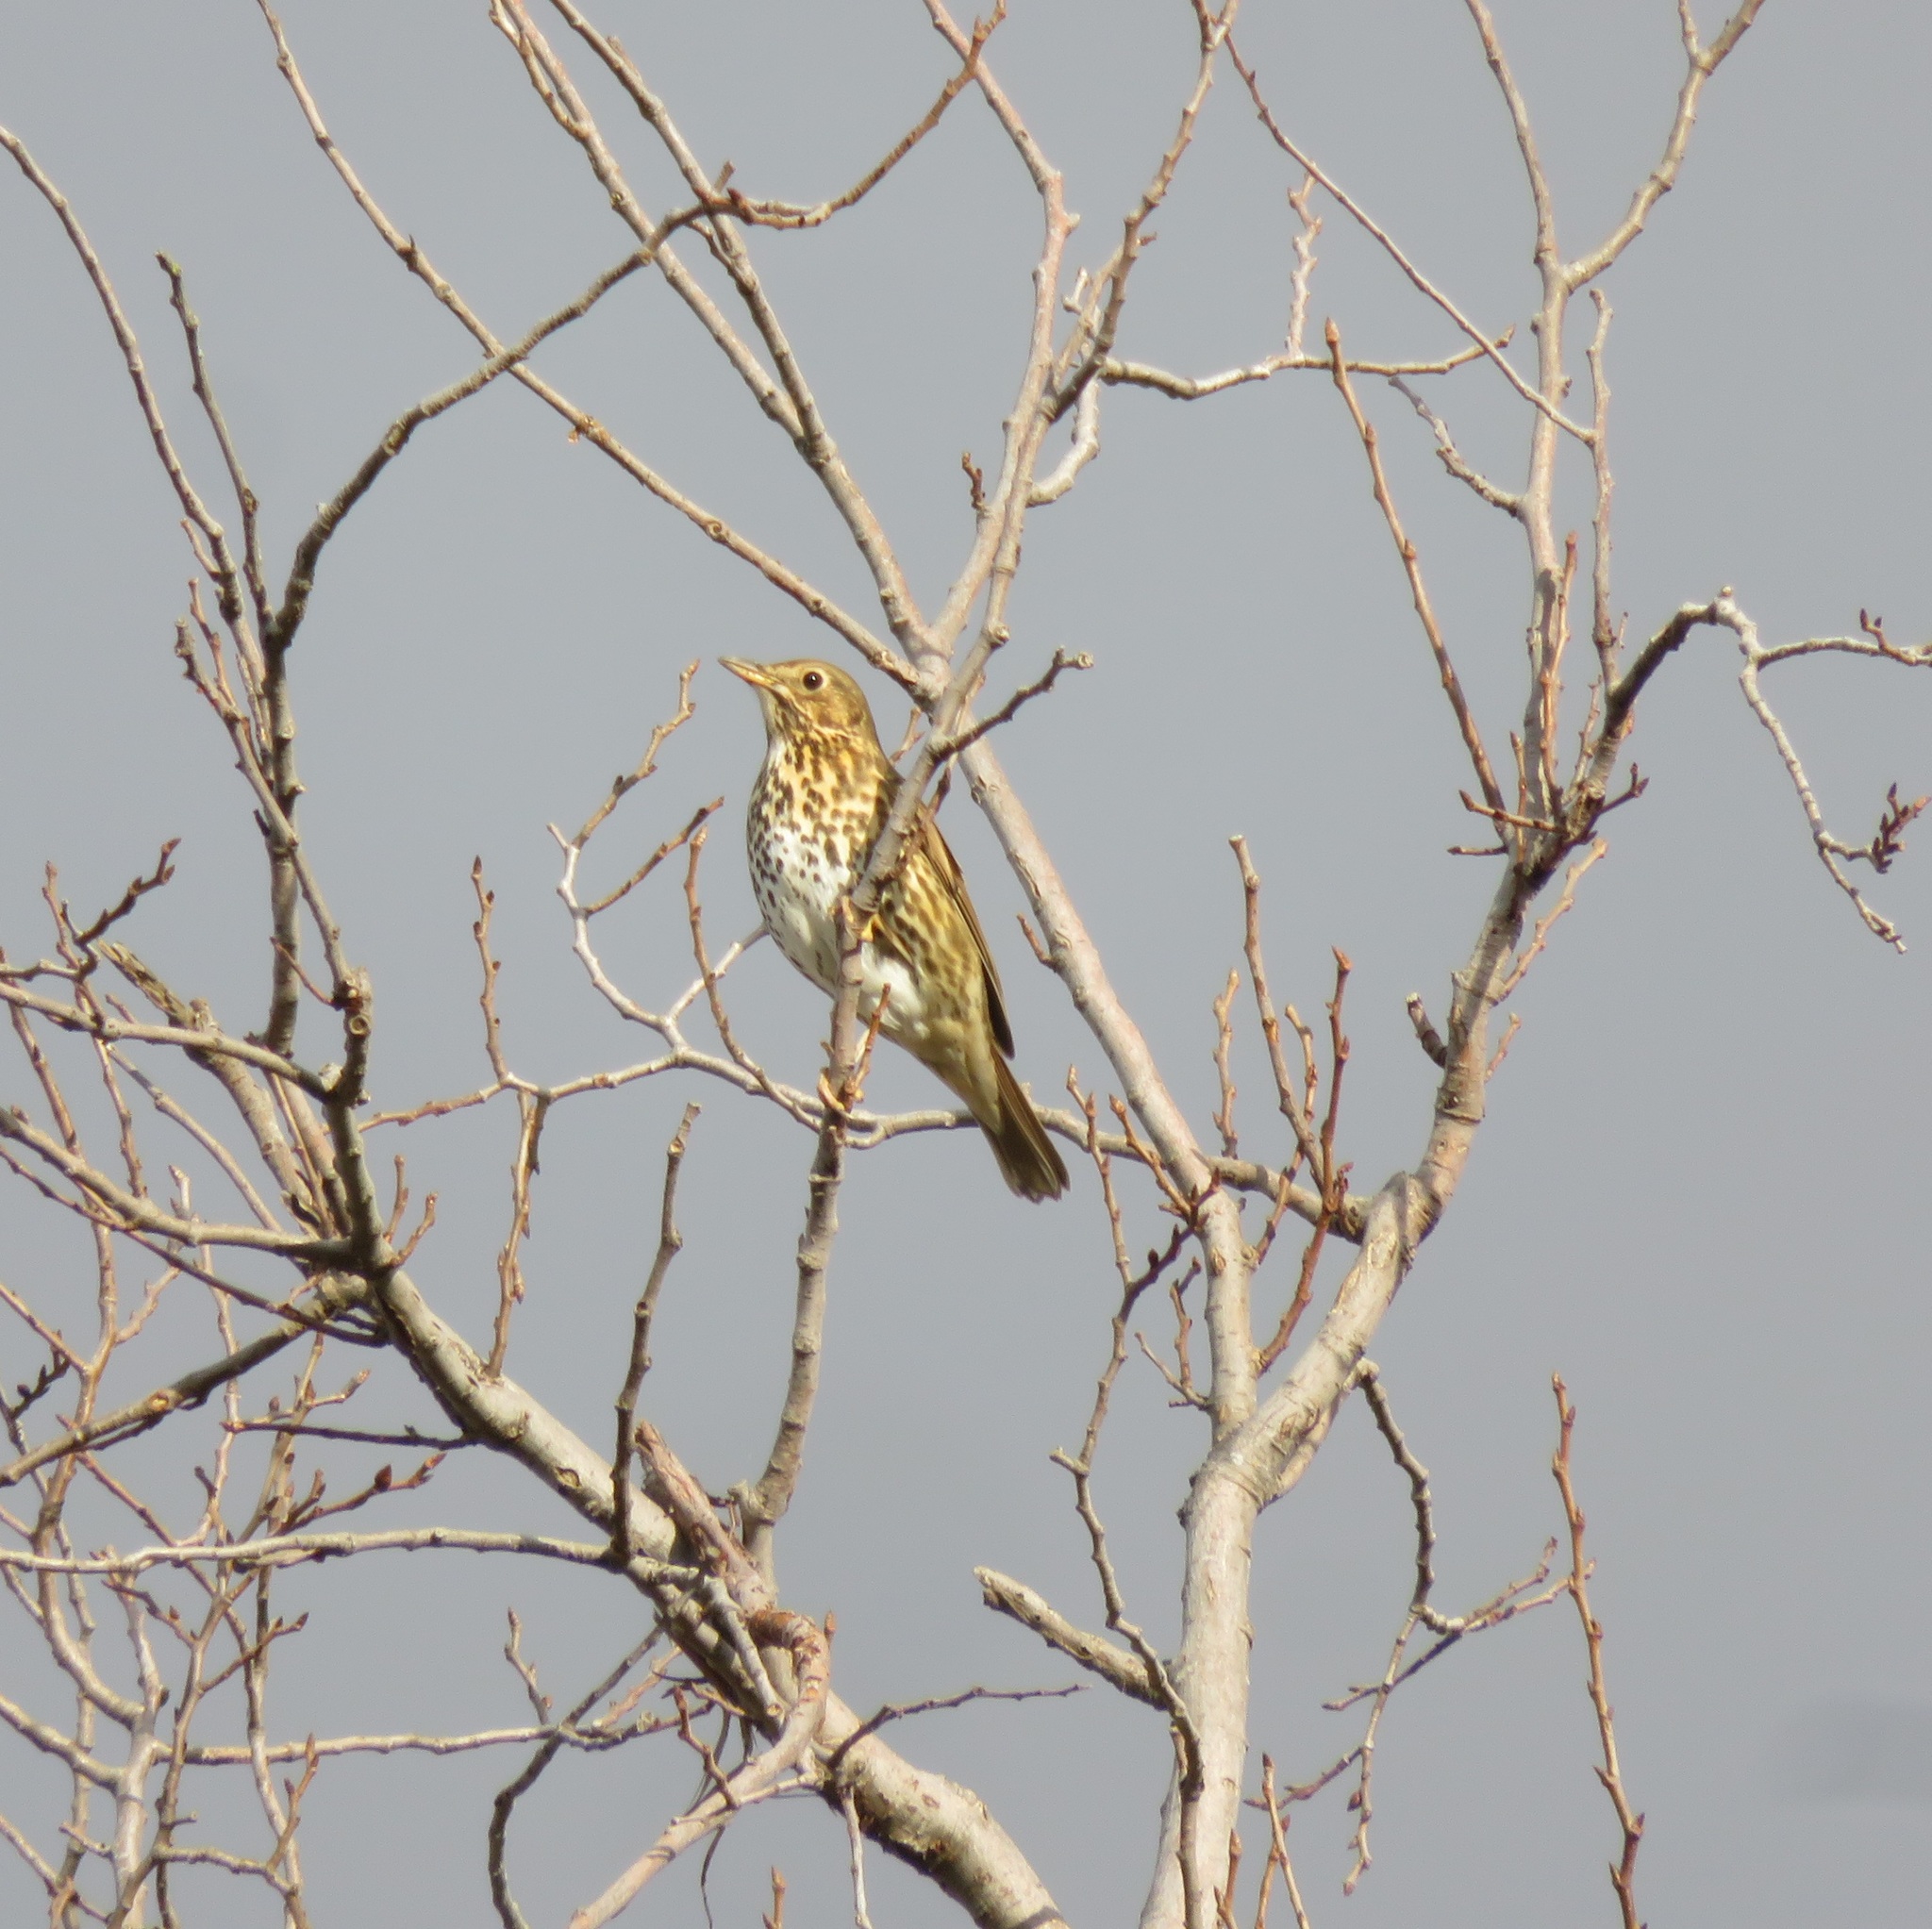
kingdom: Animalia
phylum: Chordata
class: Aves
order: Passeriformes
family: Turdidae
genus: Turdus
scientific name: Turdus philomelos
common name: Song thrush
